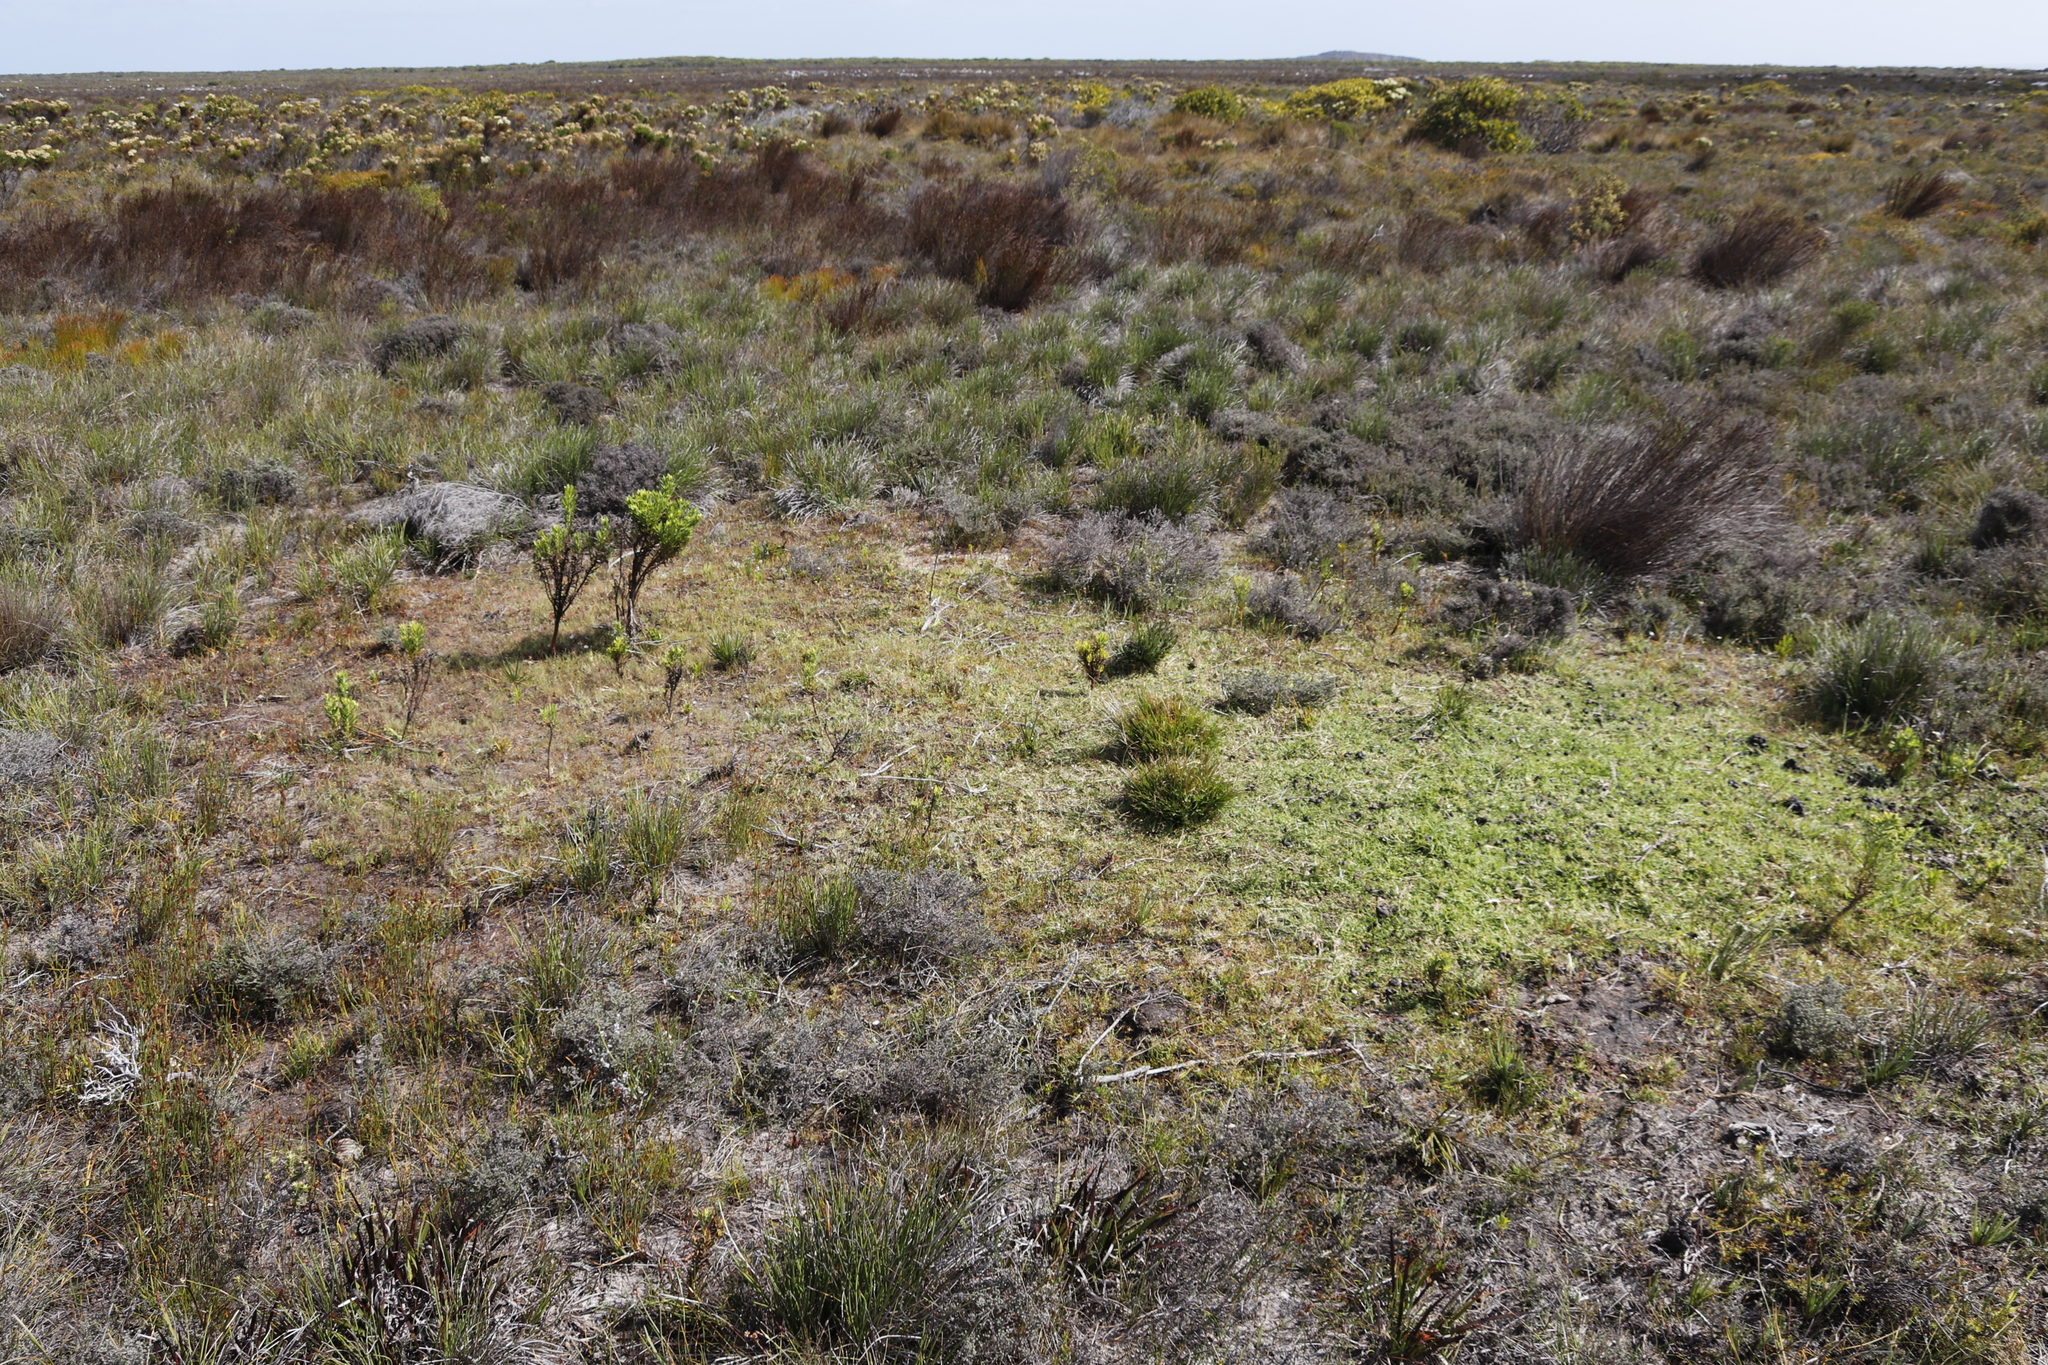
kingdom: Animalia
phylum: Chordata
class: Mammalia
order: Artiodactyla
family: Bovidae
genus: Damaliscus
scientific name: Damaliscus pygargus
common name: Bontebok
